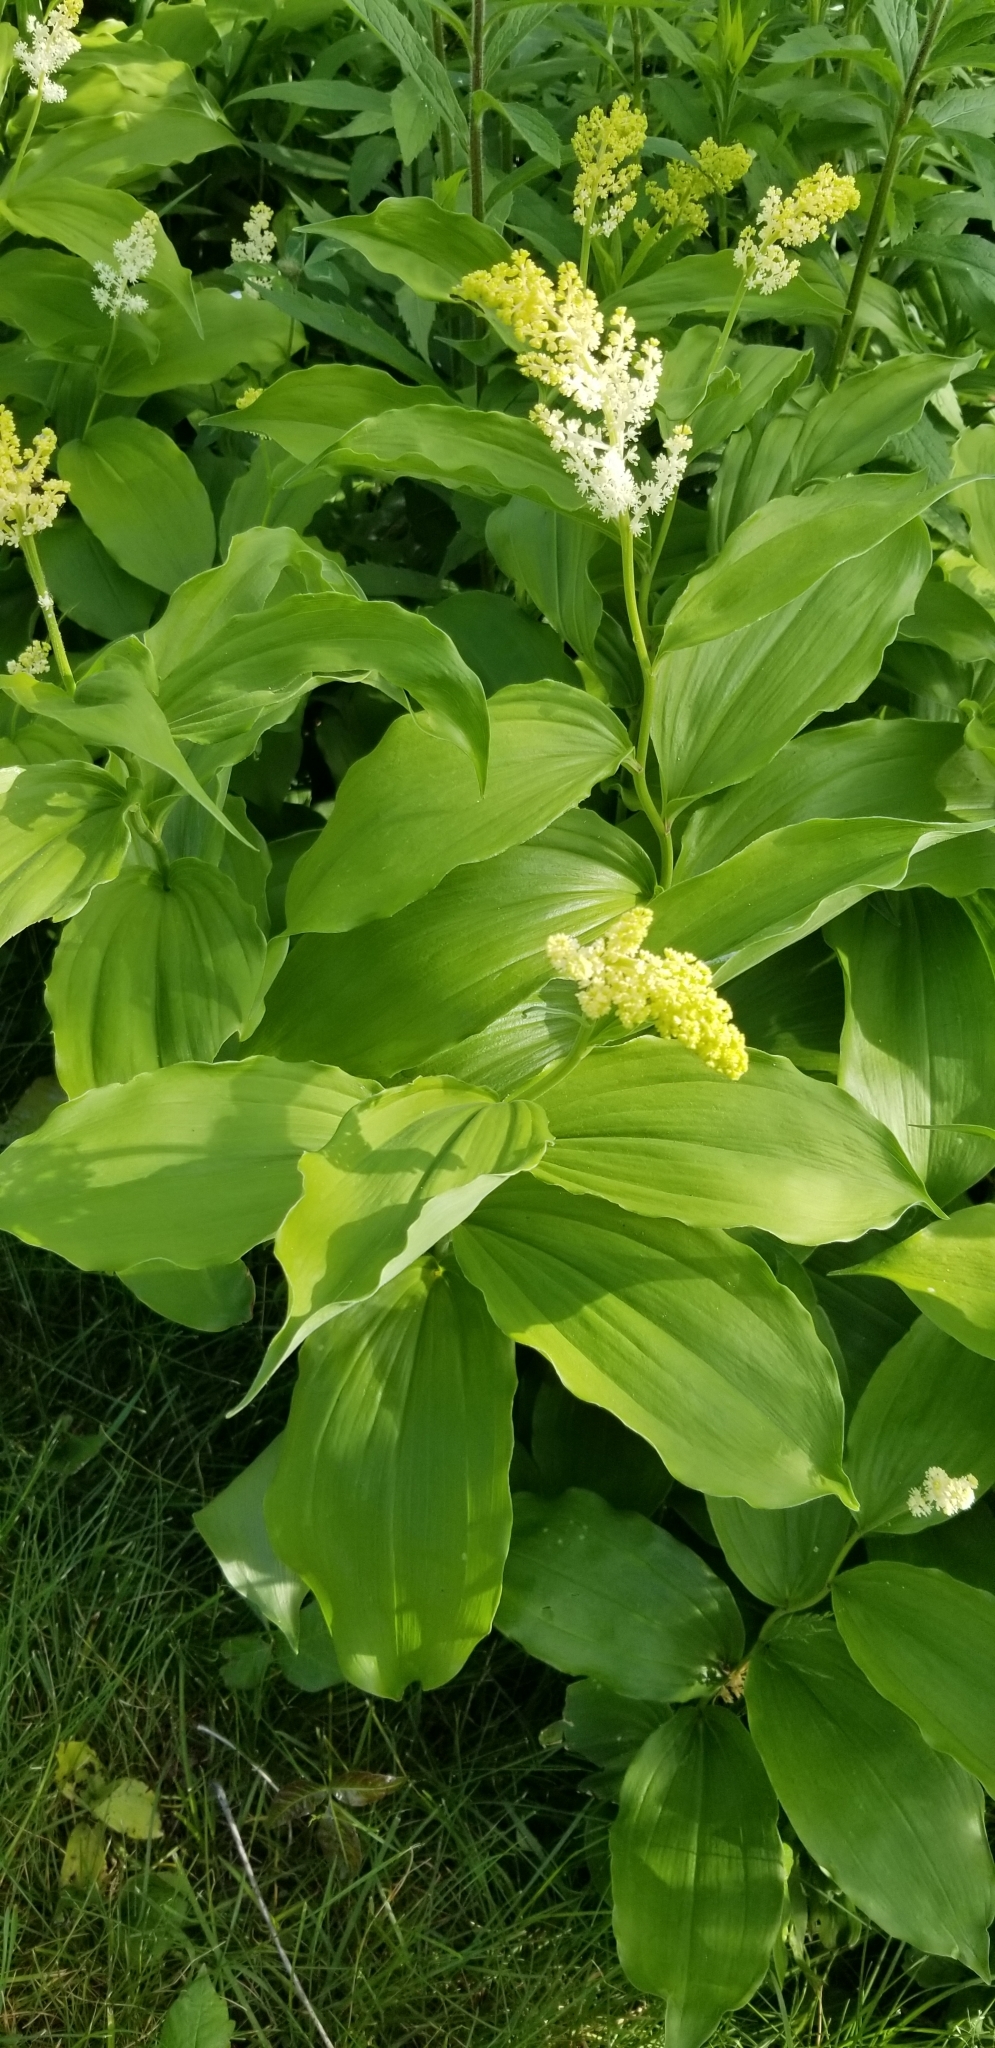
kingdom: Plantae
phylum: Tracheophyta
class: Liliopsida
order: Asparagales
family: Asparagaceae
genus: Maianthemum
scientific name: Maianthemum racemosum
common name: False spikenard
